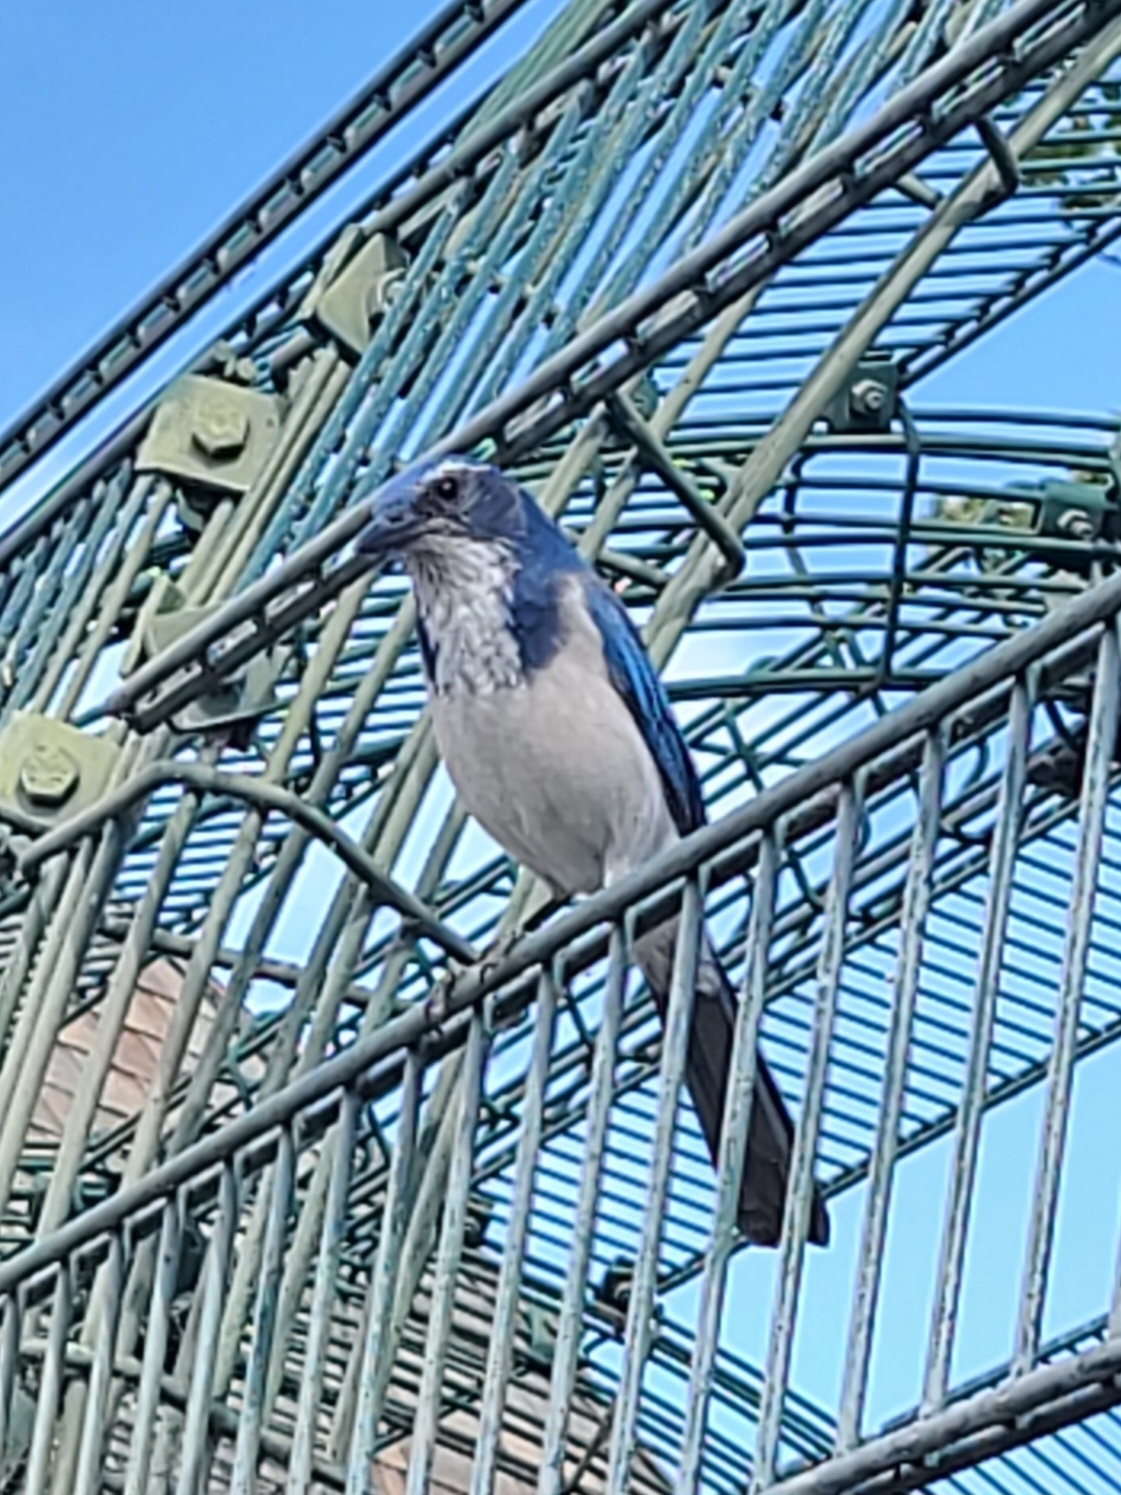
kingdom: Animalia
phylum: Chordata
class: Aves
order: Passeriformes
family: Corvidae
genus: Aphelocoma
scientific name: Aphelocoma californica
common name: California scrub-jay
